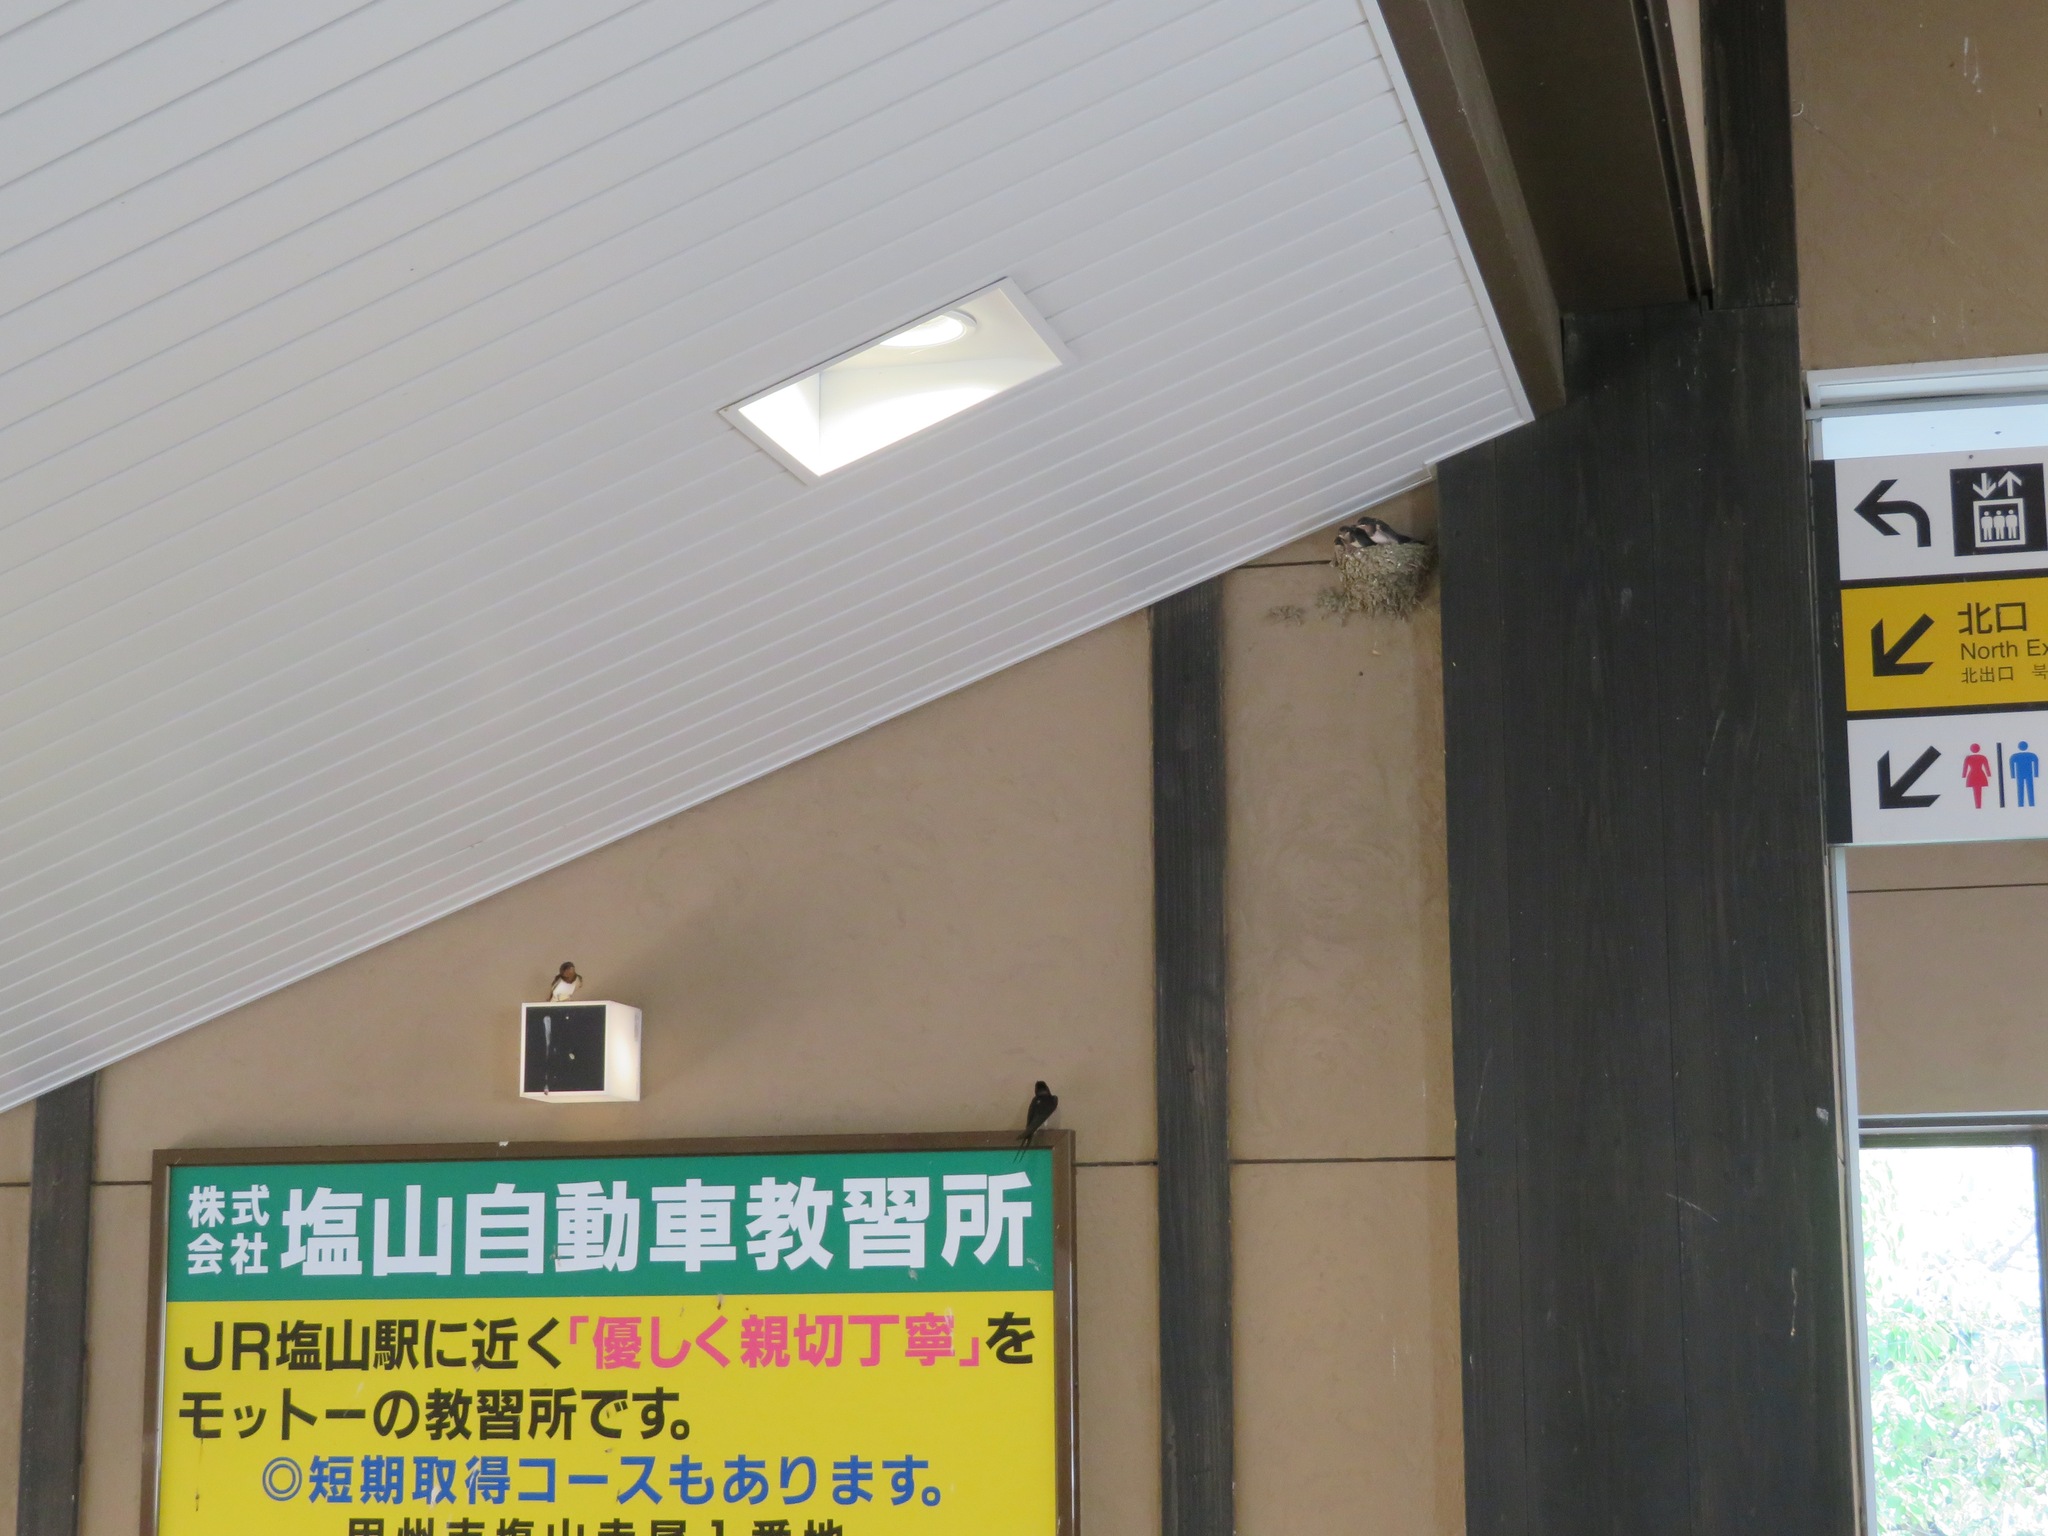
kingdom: Animalia
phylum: Chordata
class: Aves
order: Passeriformes
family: Hirundinidae
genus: Hirundo
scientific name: Hirundo rustica
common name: Barn swallow
